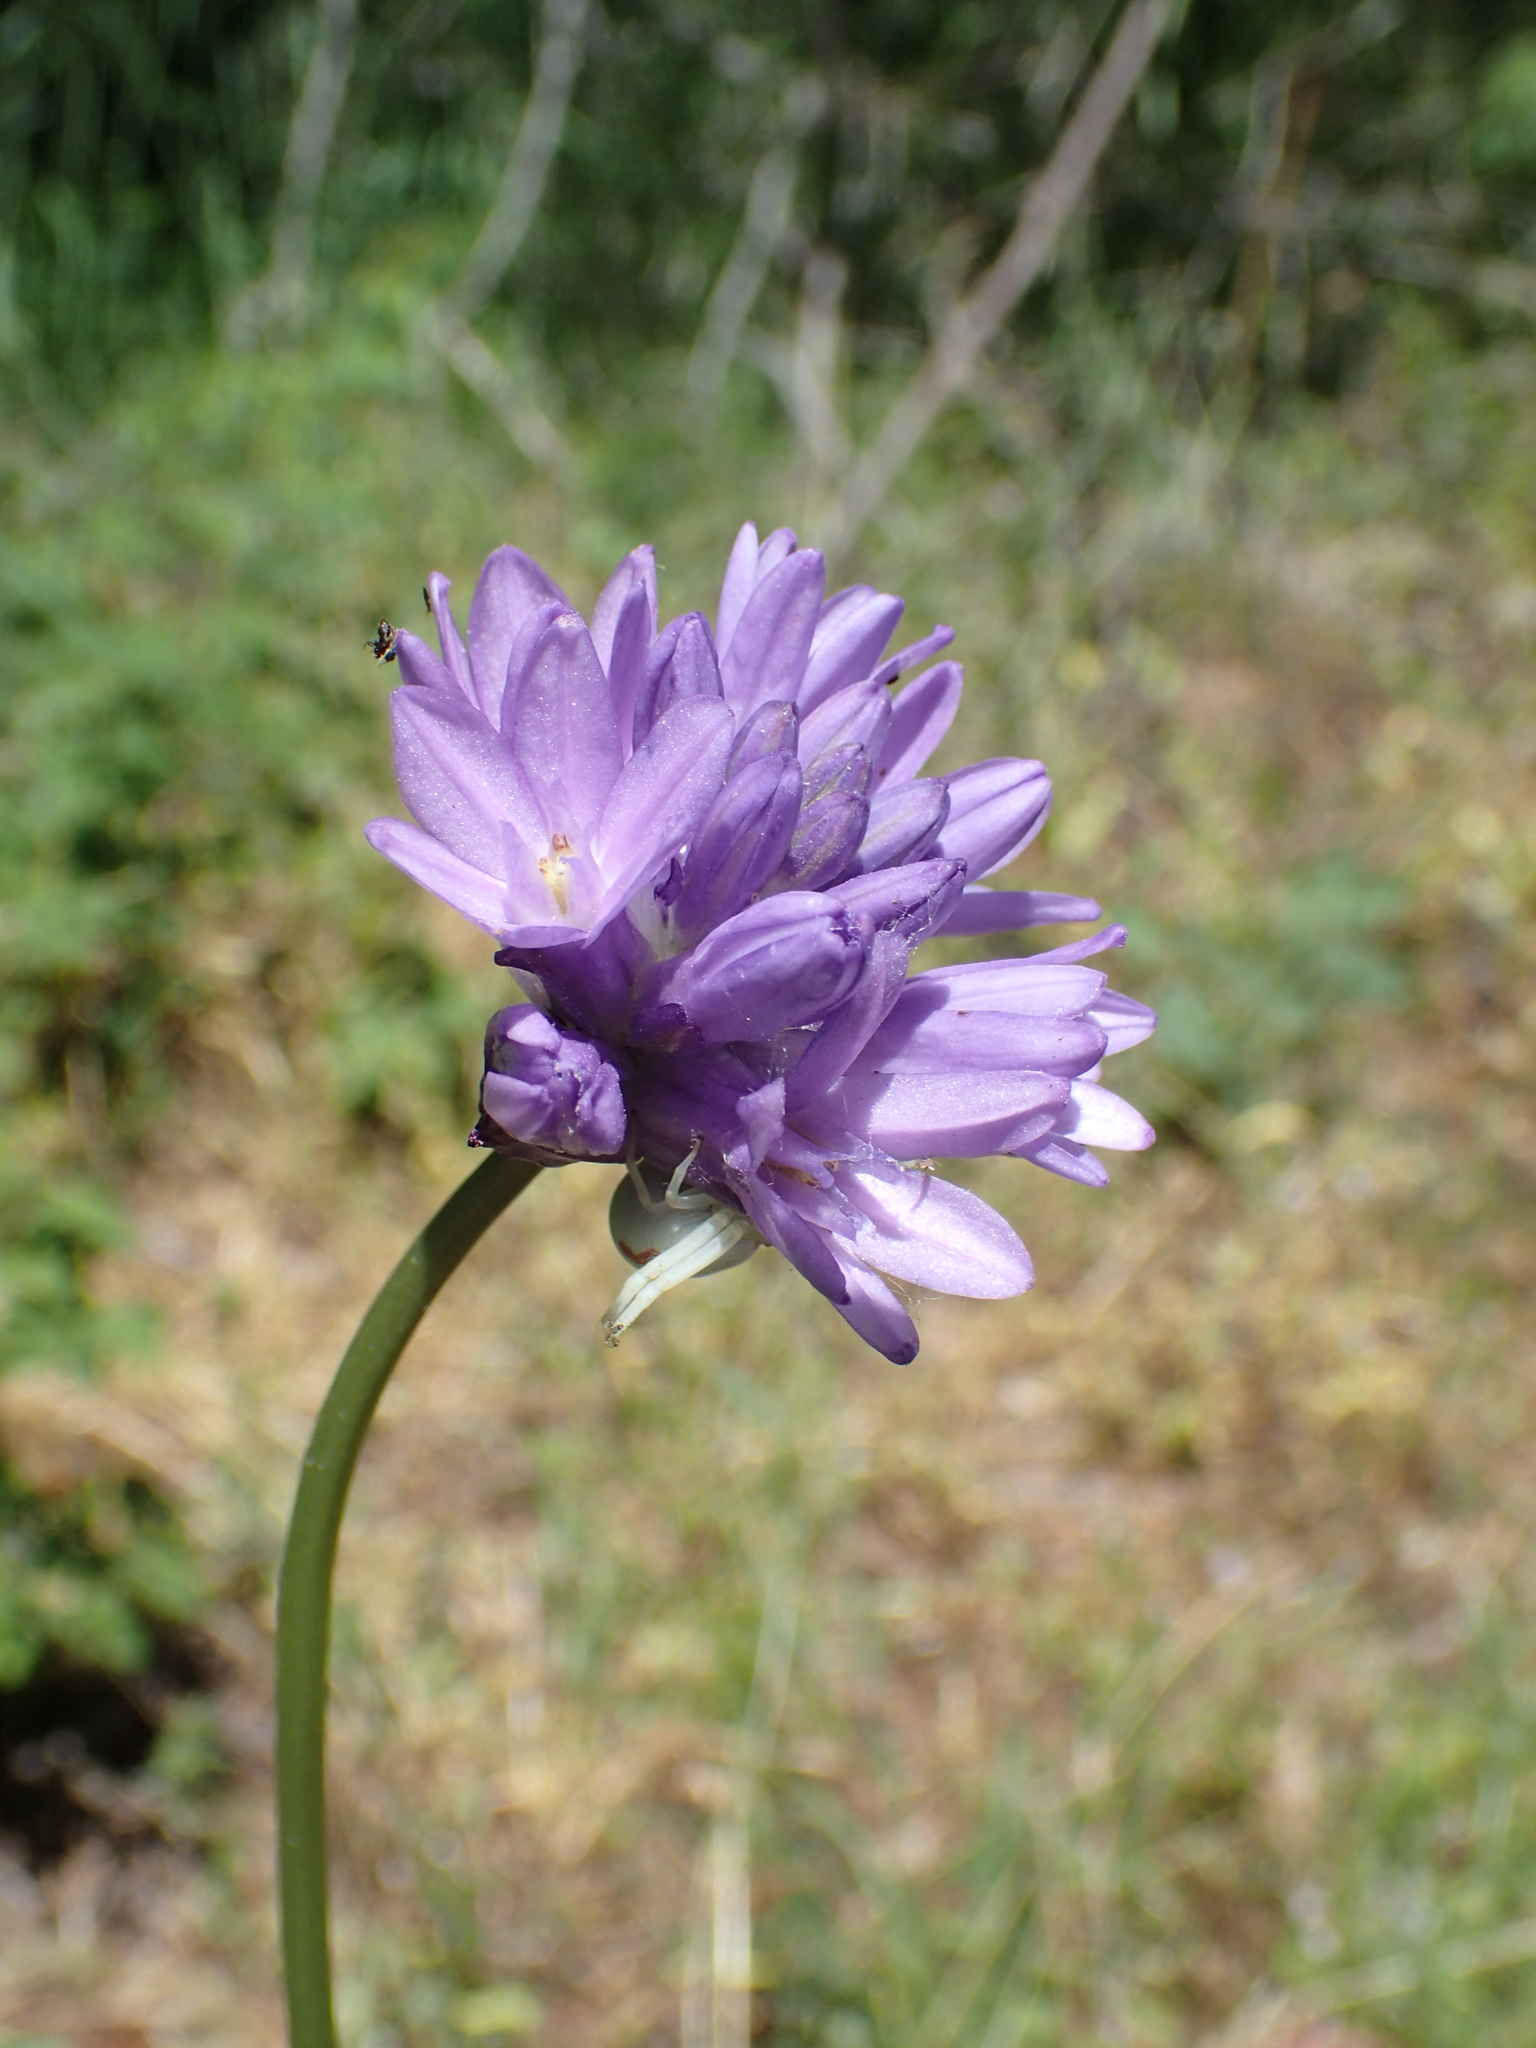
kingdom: Plantae
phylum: Tracheophyta
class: Liliopsida
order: Asparagales
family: Asparagaceae
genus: Dichelostemma
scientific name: Dichelostemma congestum
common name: Fork-tooth ookow
